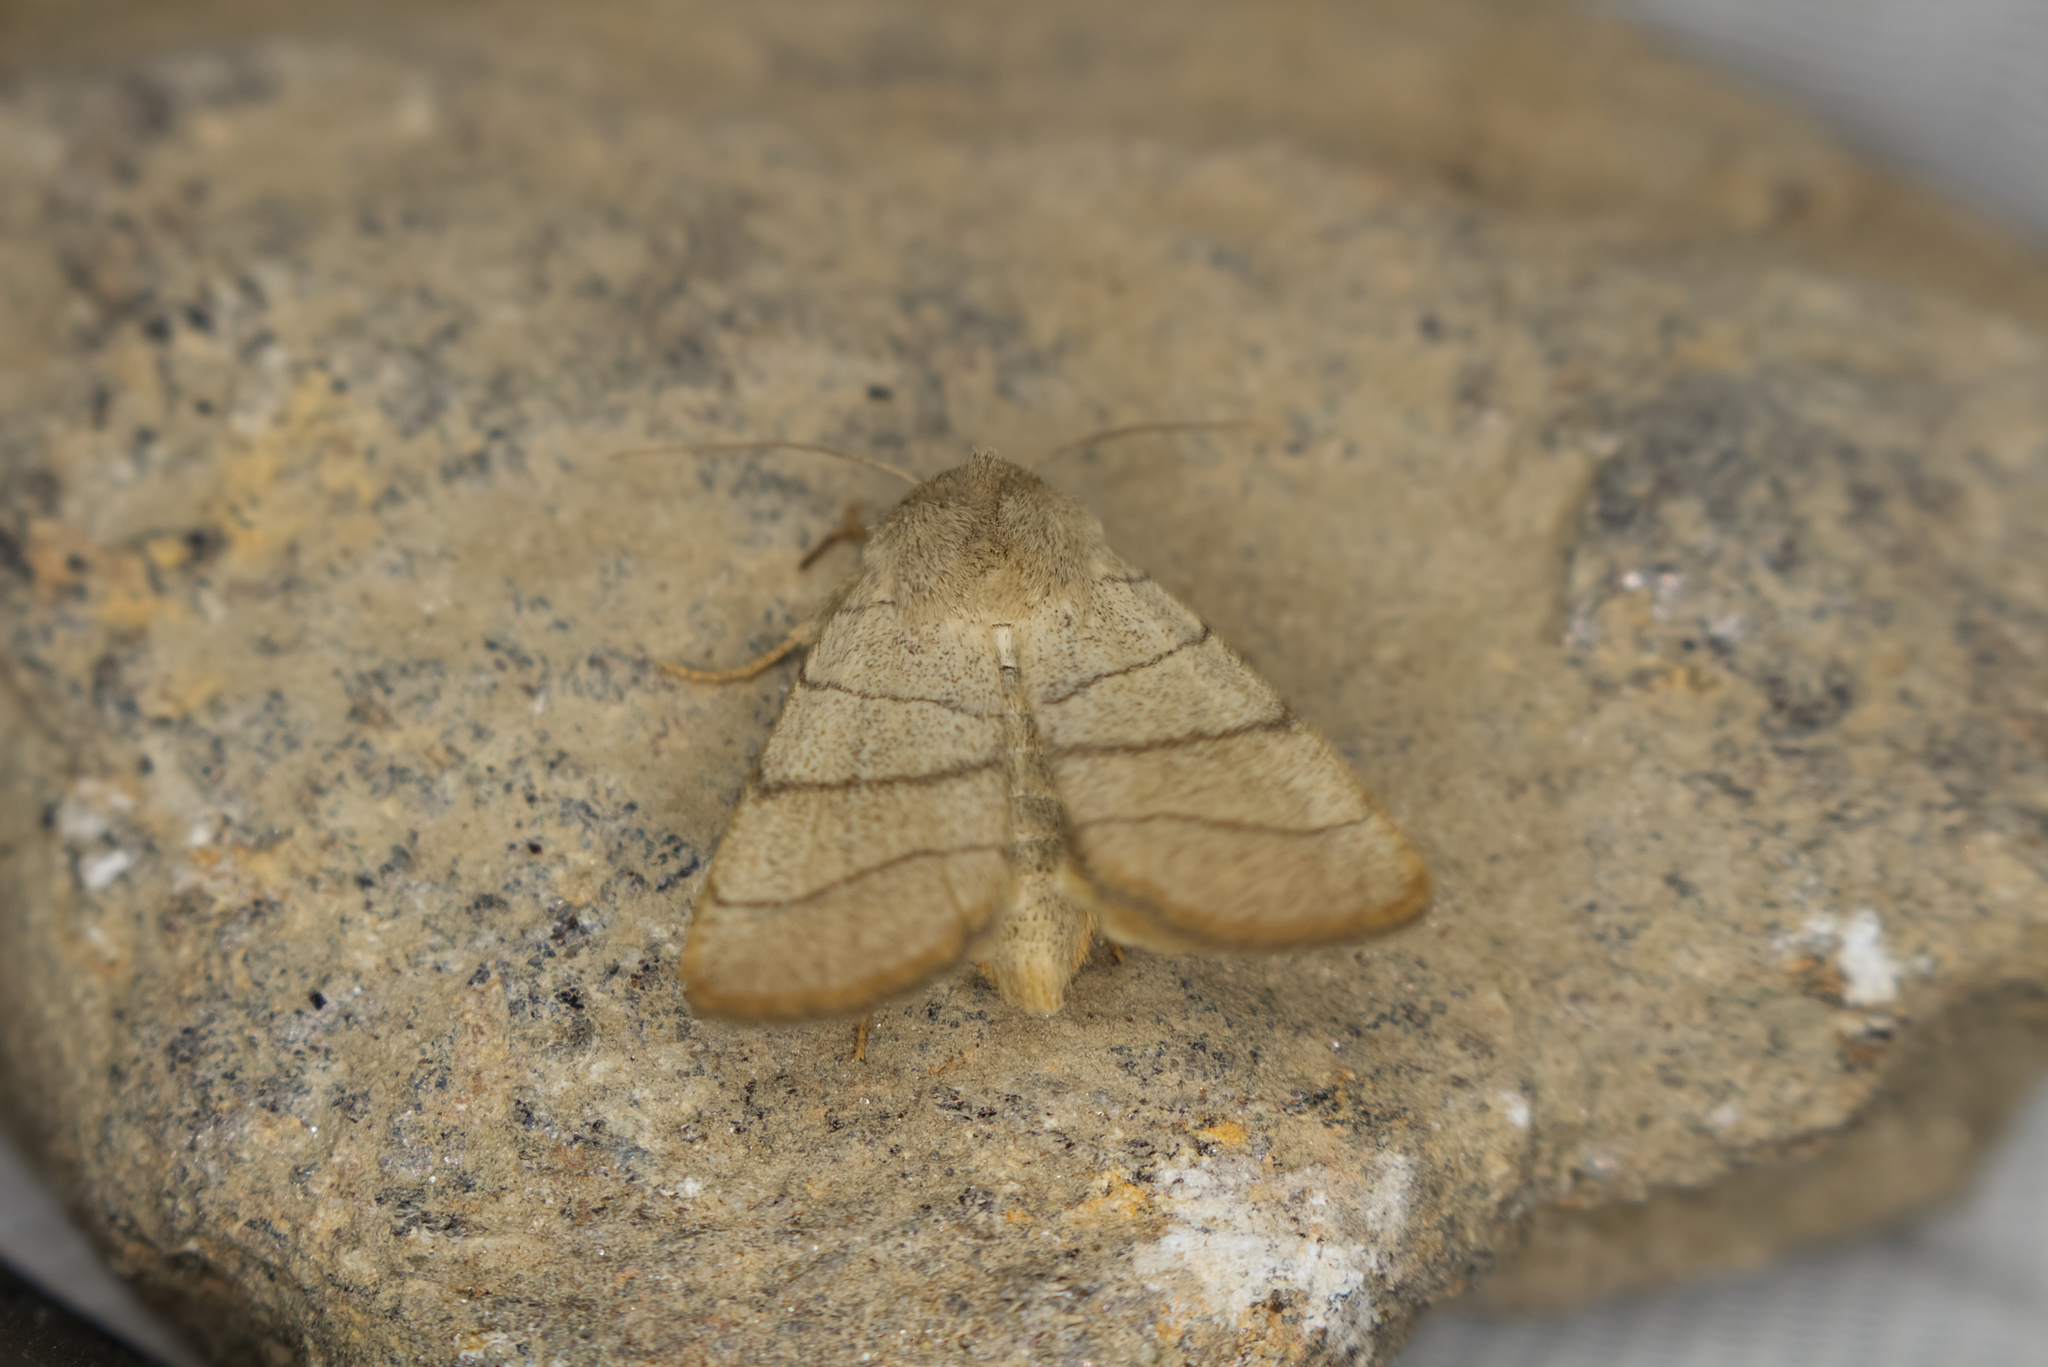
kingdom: Animalia
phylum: Arthropoda
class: Insecta
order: Lepidoptera
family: Noctuidae
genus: Charanyca
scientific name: Charanyca trigrammica
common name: Treble lines
